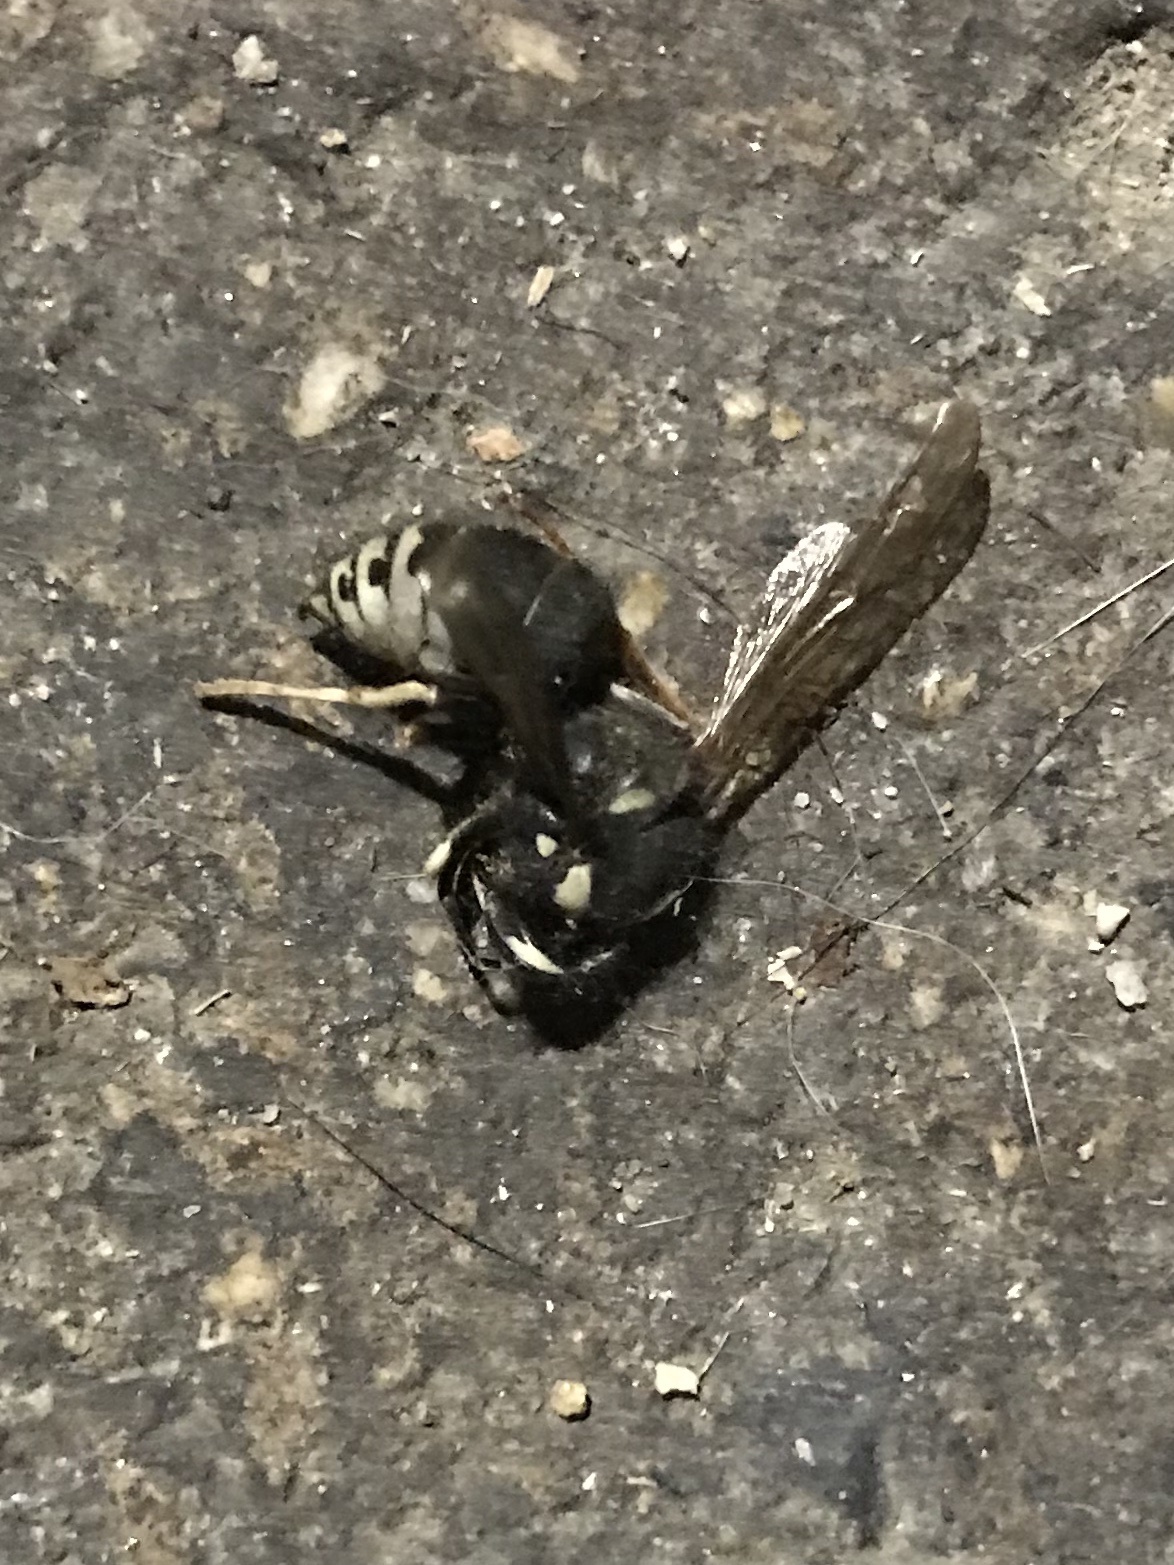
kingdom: Animalia
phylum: Arthropoda
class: Insecta
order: Hymenoptera
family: Vespidae
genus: Vespula
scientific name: Vespula consobrina
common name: Blackjacket
